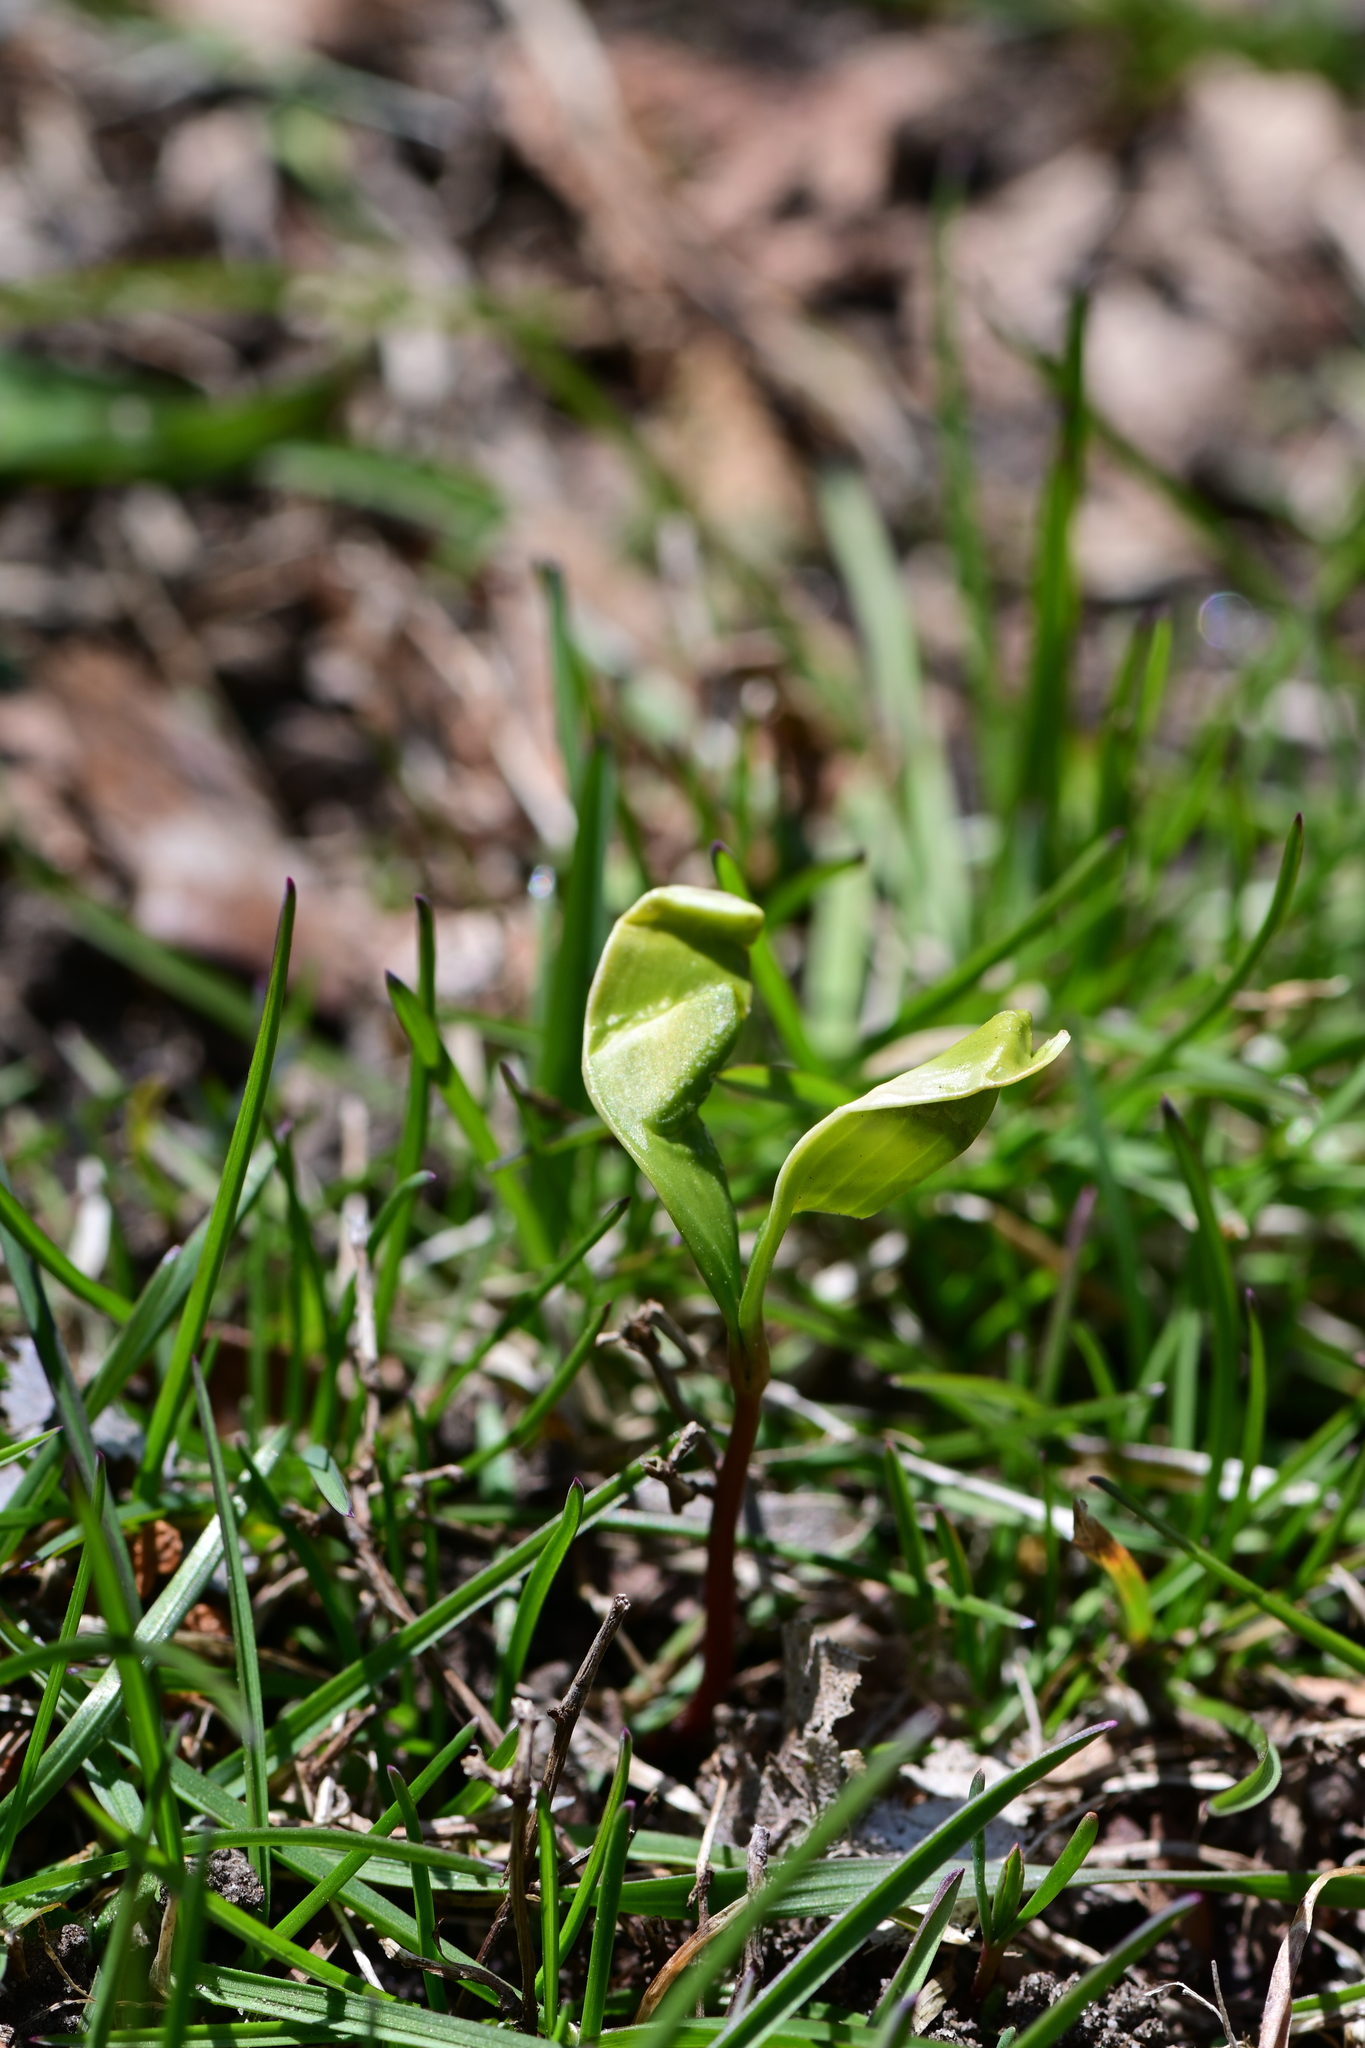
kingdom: Plantae
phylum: Tracheophyta
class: Magnoliopsida
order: Sapindales
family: Sapindaceae
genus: Acer
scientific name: Acer platanoides
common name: Norway maple
